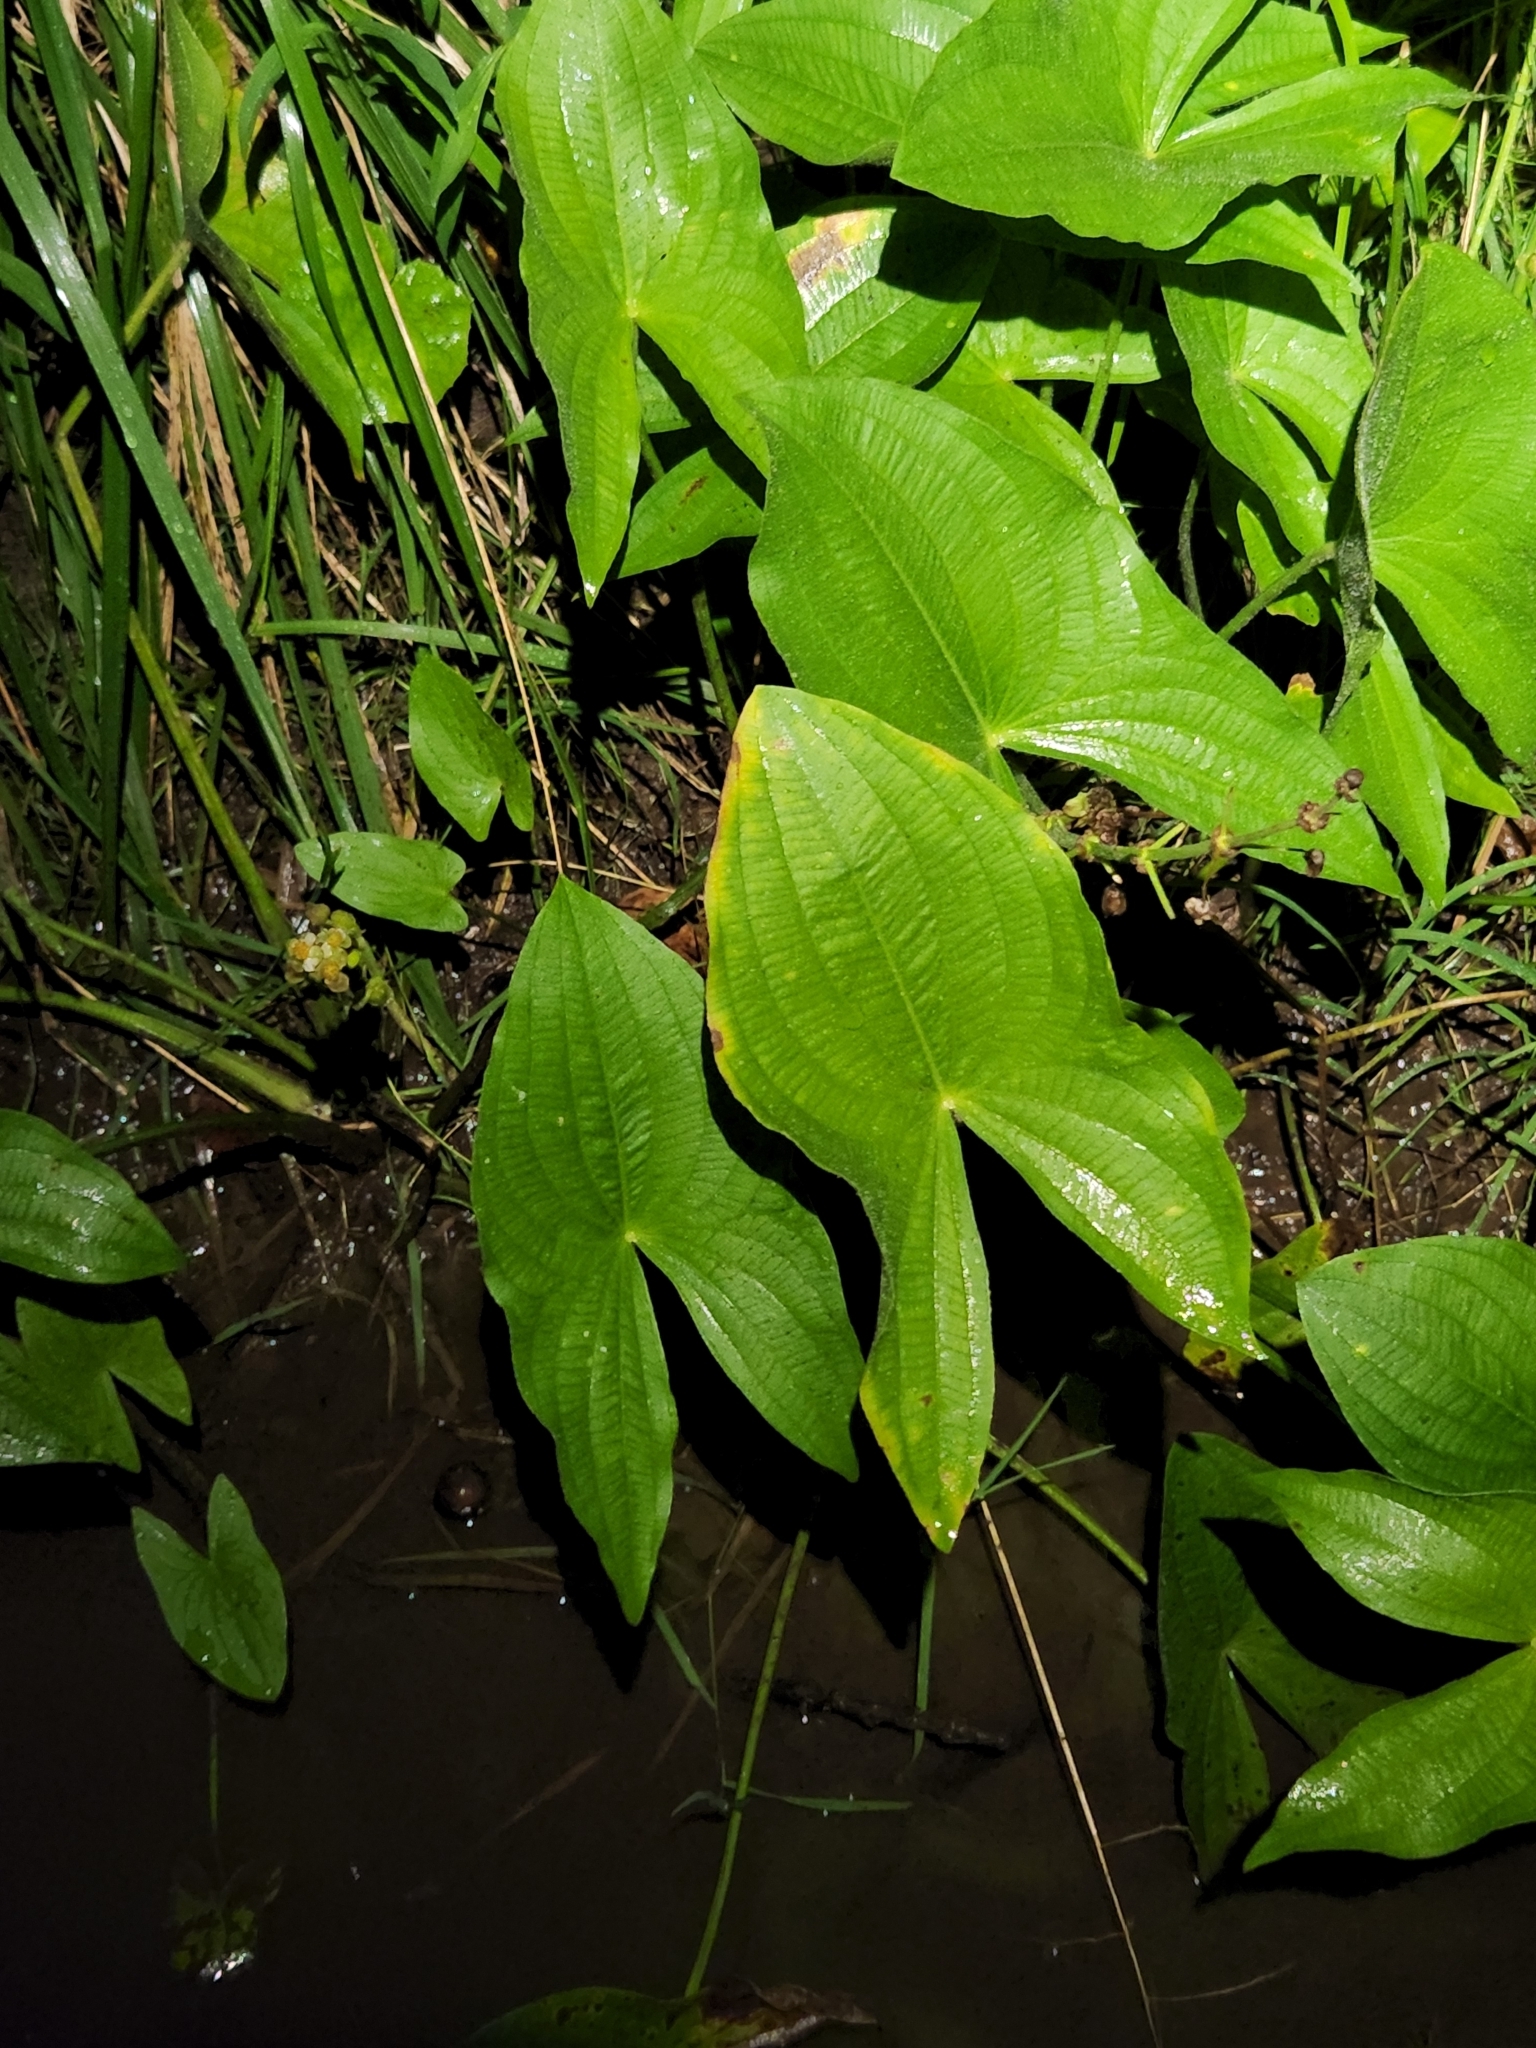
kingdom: Plantae
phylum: Tracheophyta
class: Liliopsida
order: Alismatales
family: Alismataceae
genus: Sagittaria
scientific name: Sagittaria latifolia
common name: Duck-potato
